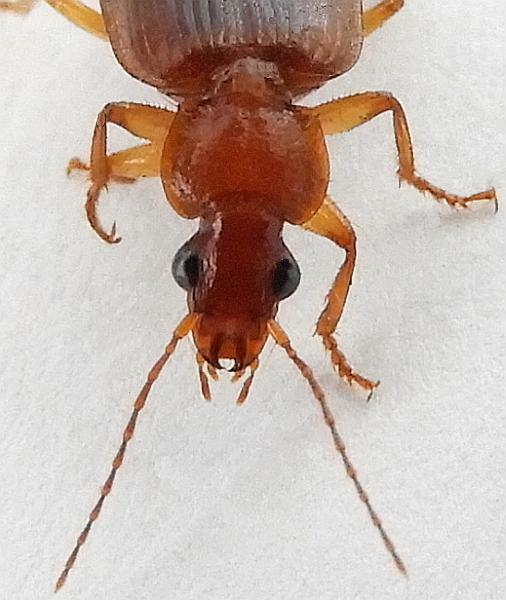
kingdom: Animalia
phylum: Arthropoda
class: Insecta
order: Coleoptera
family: Carabidae
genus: Pinacodera
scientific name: Pinacodera punctifera
